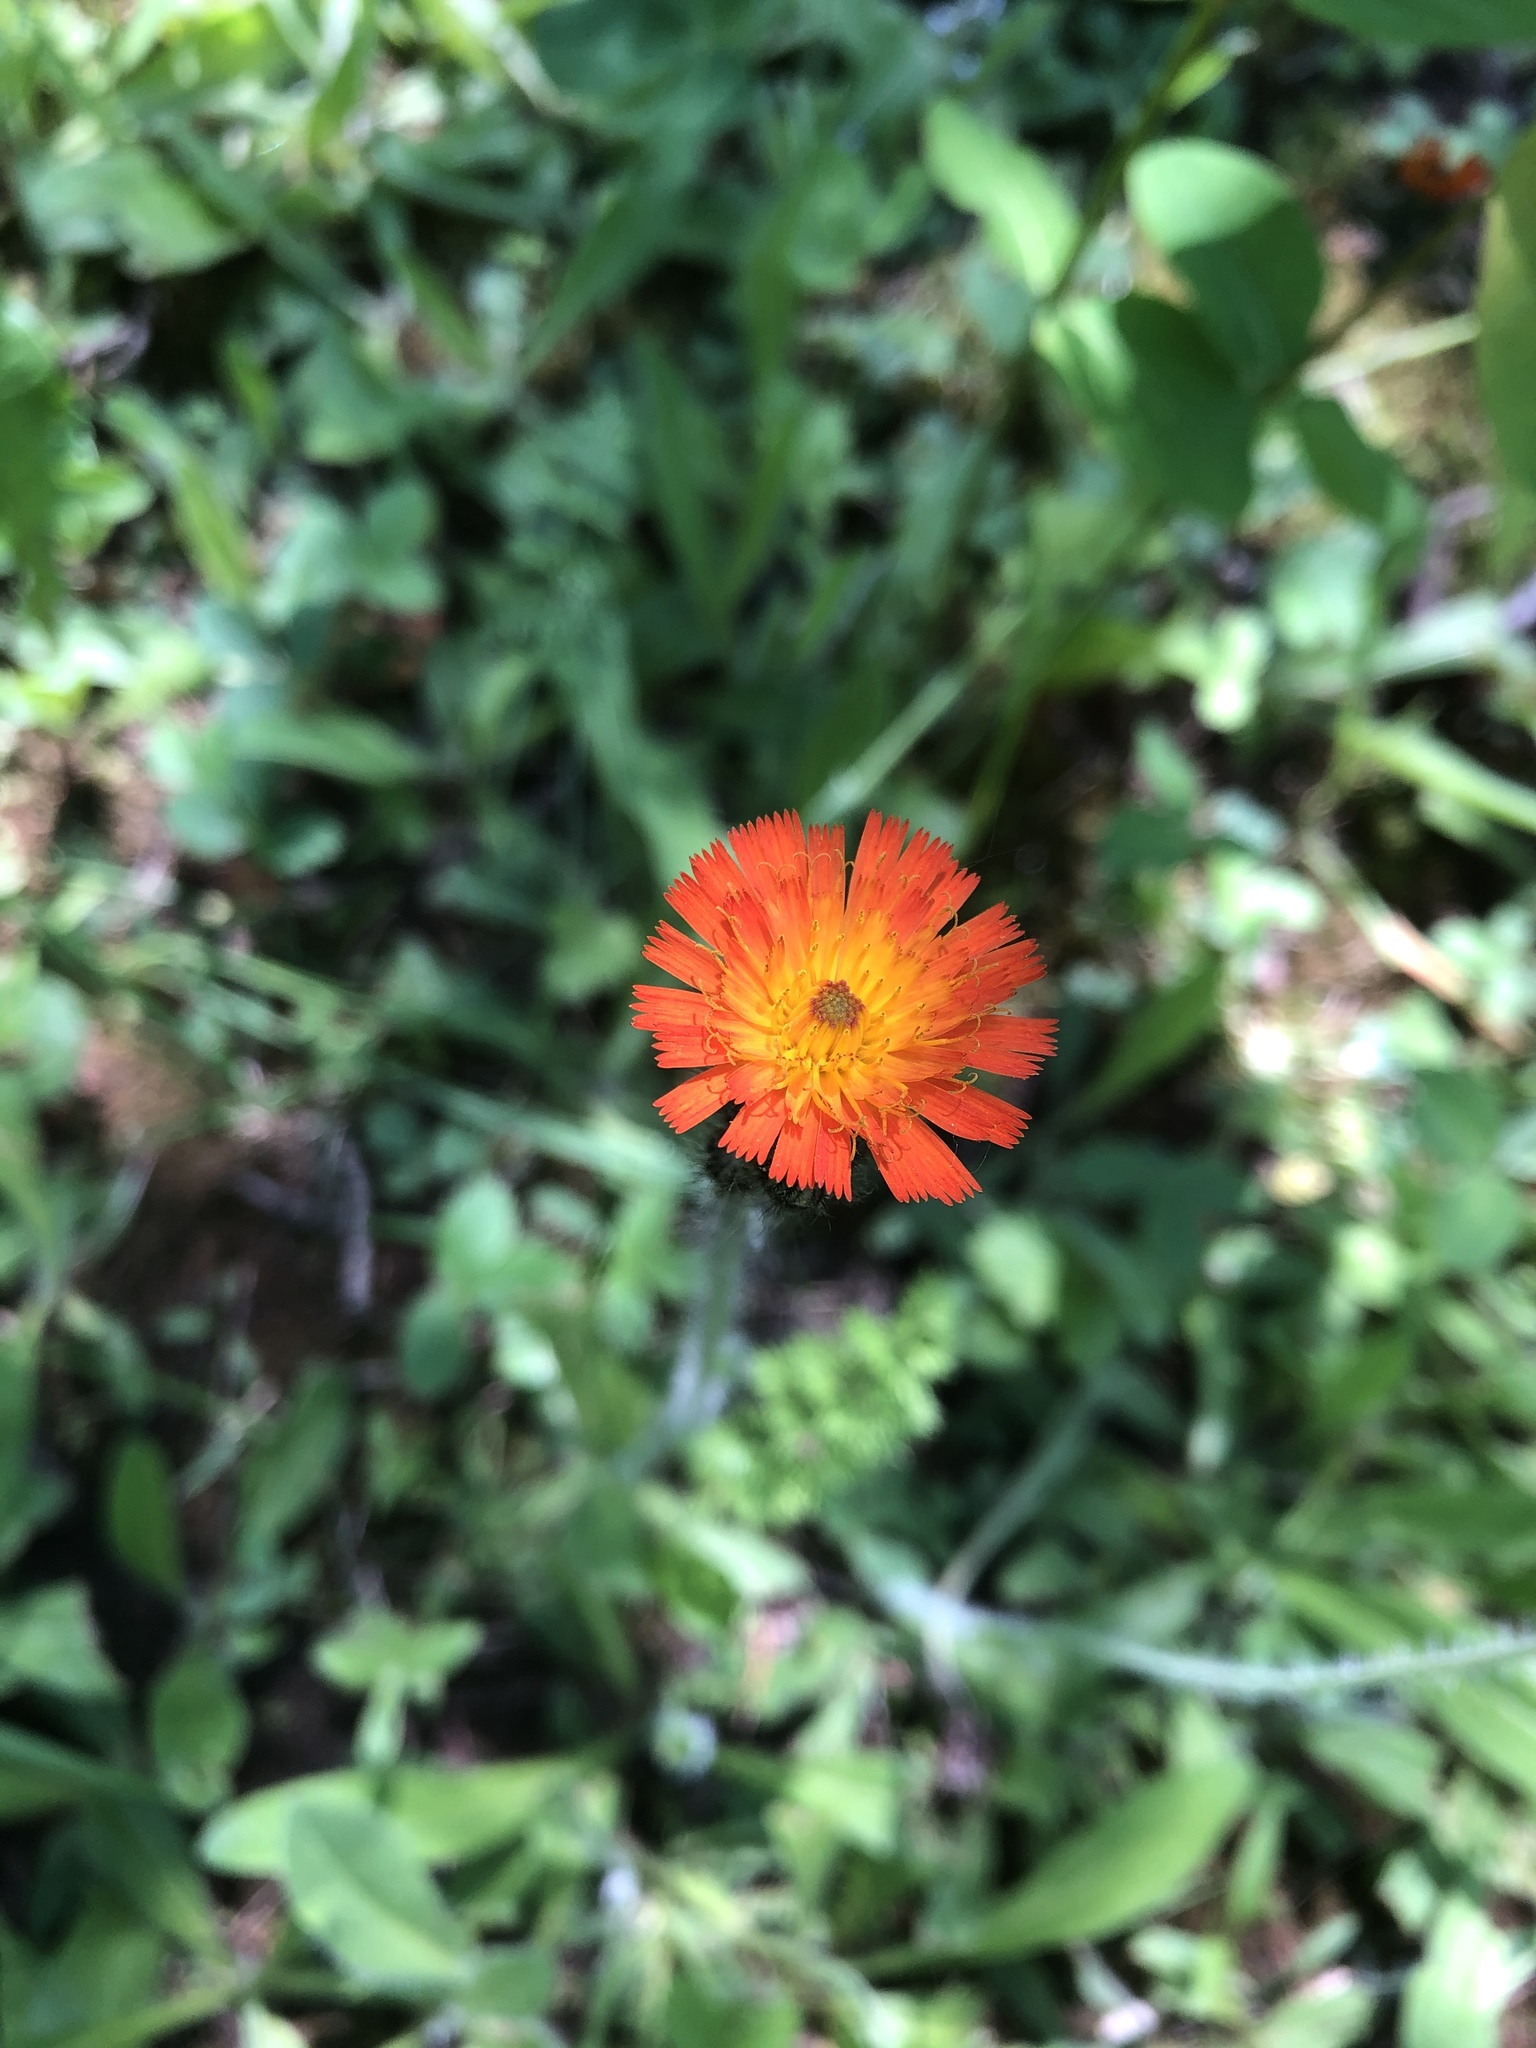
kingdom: Plantae
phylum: Tracheophyta
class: Magnoliopsida
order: Asterales
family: Asteraceae
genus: Pilosella
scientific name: Pilosella aurantiaca
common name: Fox-and-cubs
